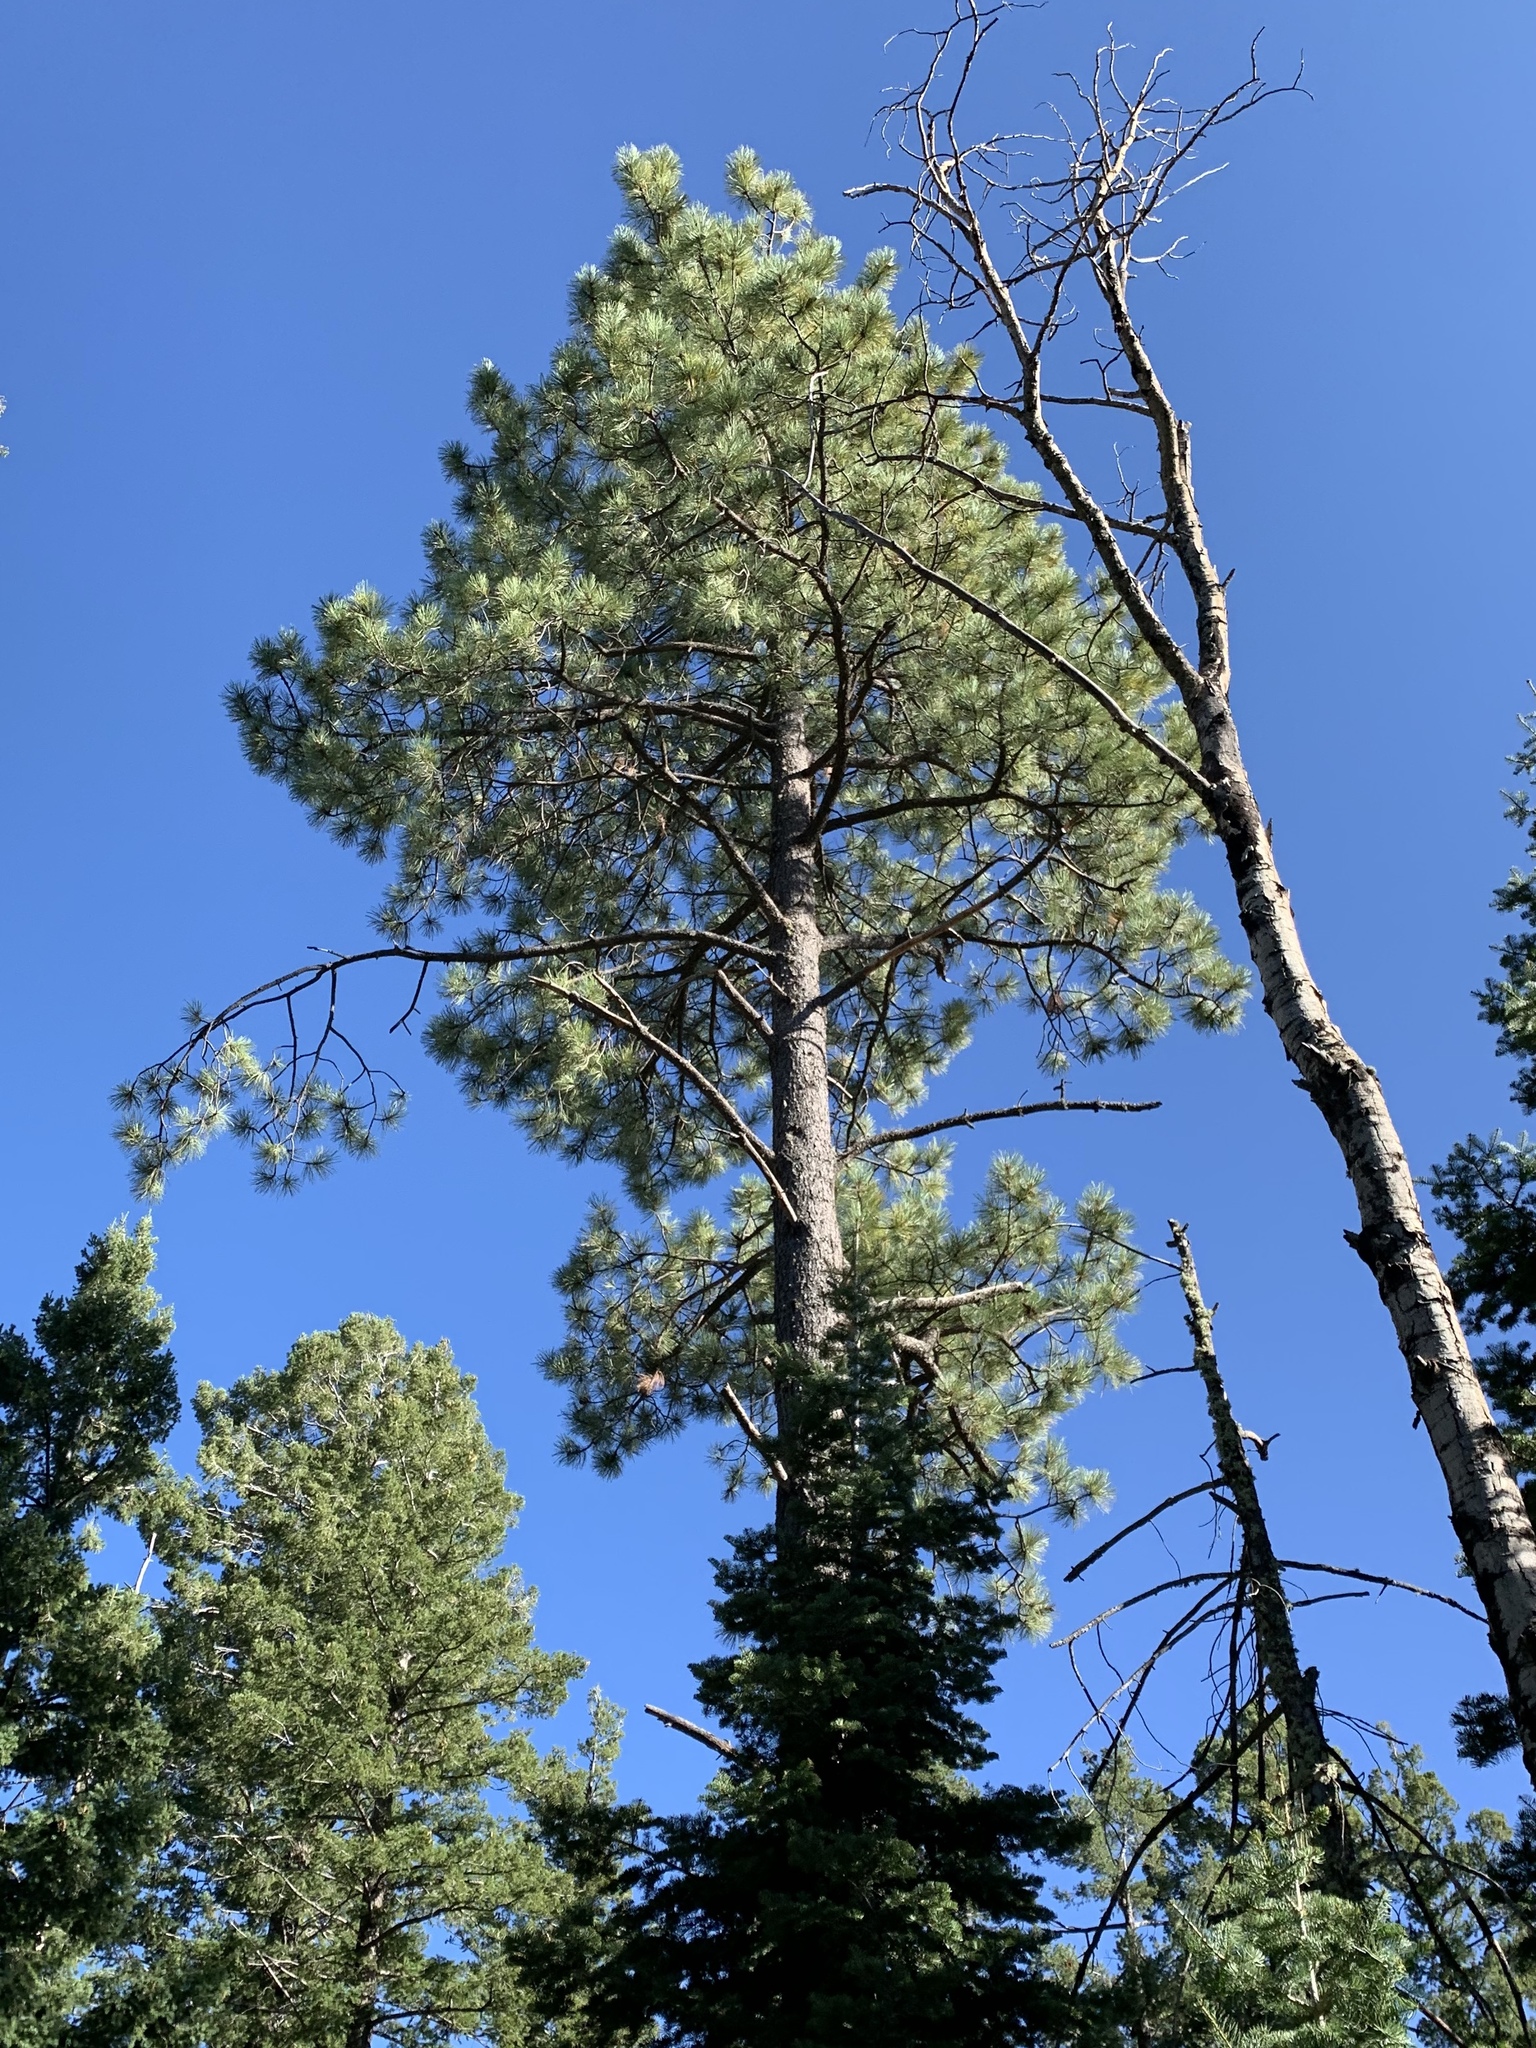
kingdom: Plantae
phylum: Tracheophyta
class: Pinopsida
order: Pinales
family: Pinaceae
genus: Pinus
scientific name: Pinus ponderosa
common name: Western yellow-pine
